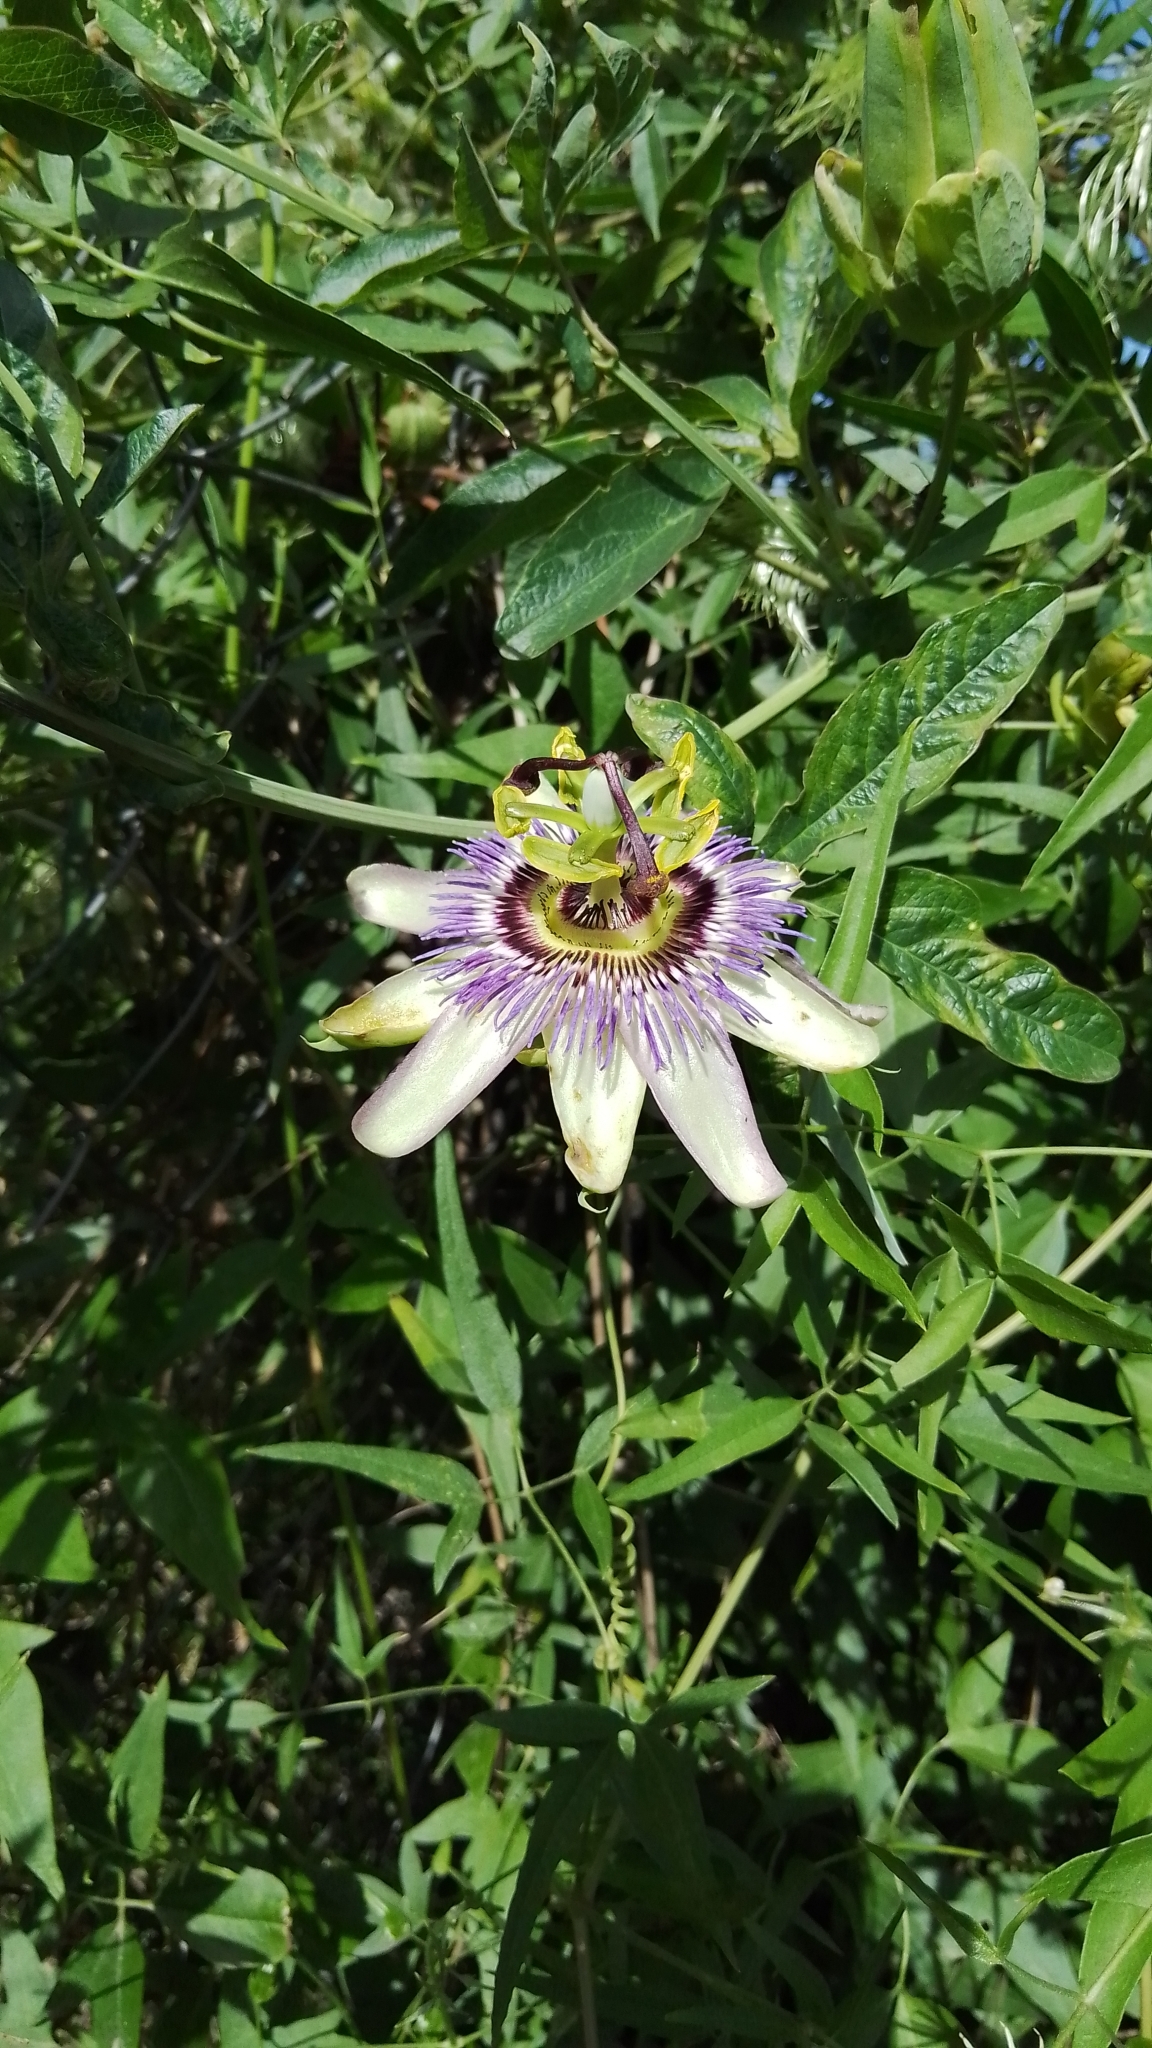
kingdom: Plantae
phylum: Tracheophyta
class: Magnoliopsida
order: Malpighiales
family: Passifloraceae
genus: Passiflora
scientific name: Passiflora caerulea
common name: Blue passionflower
